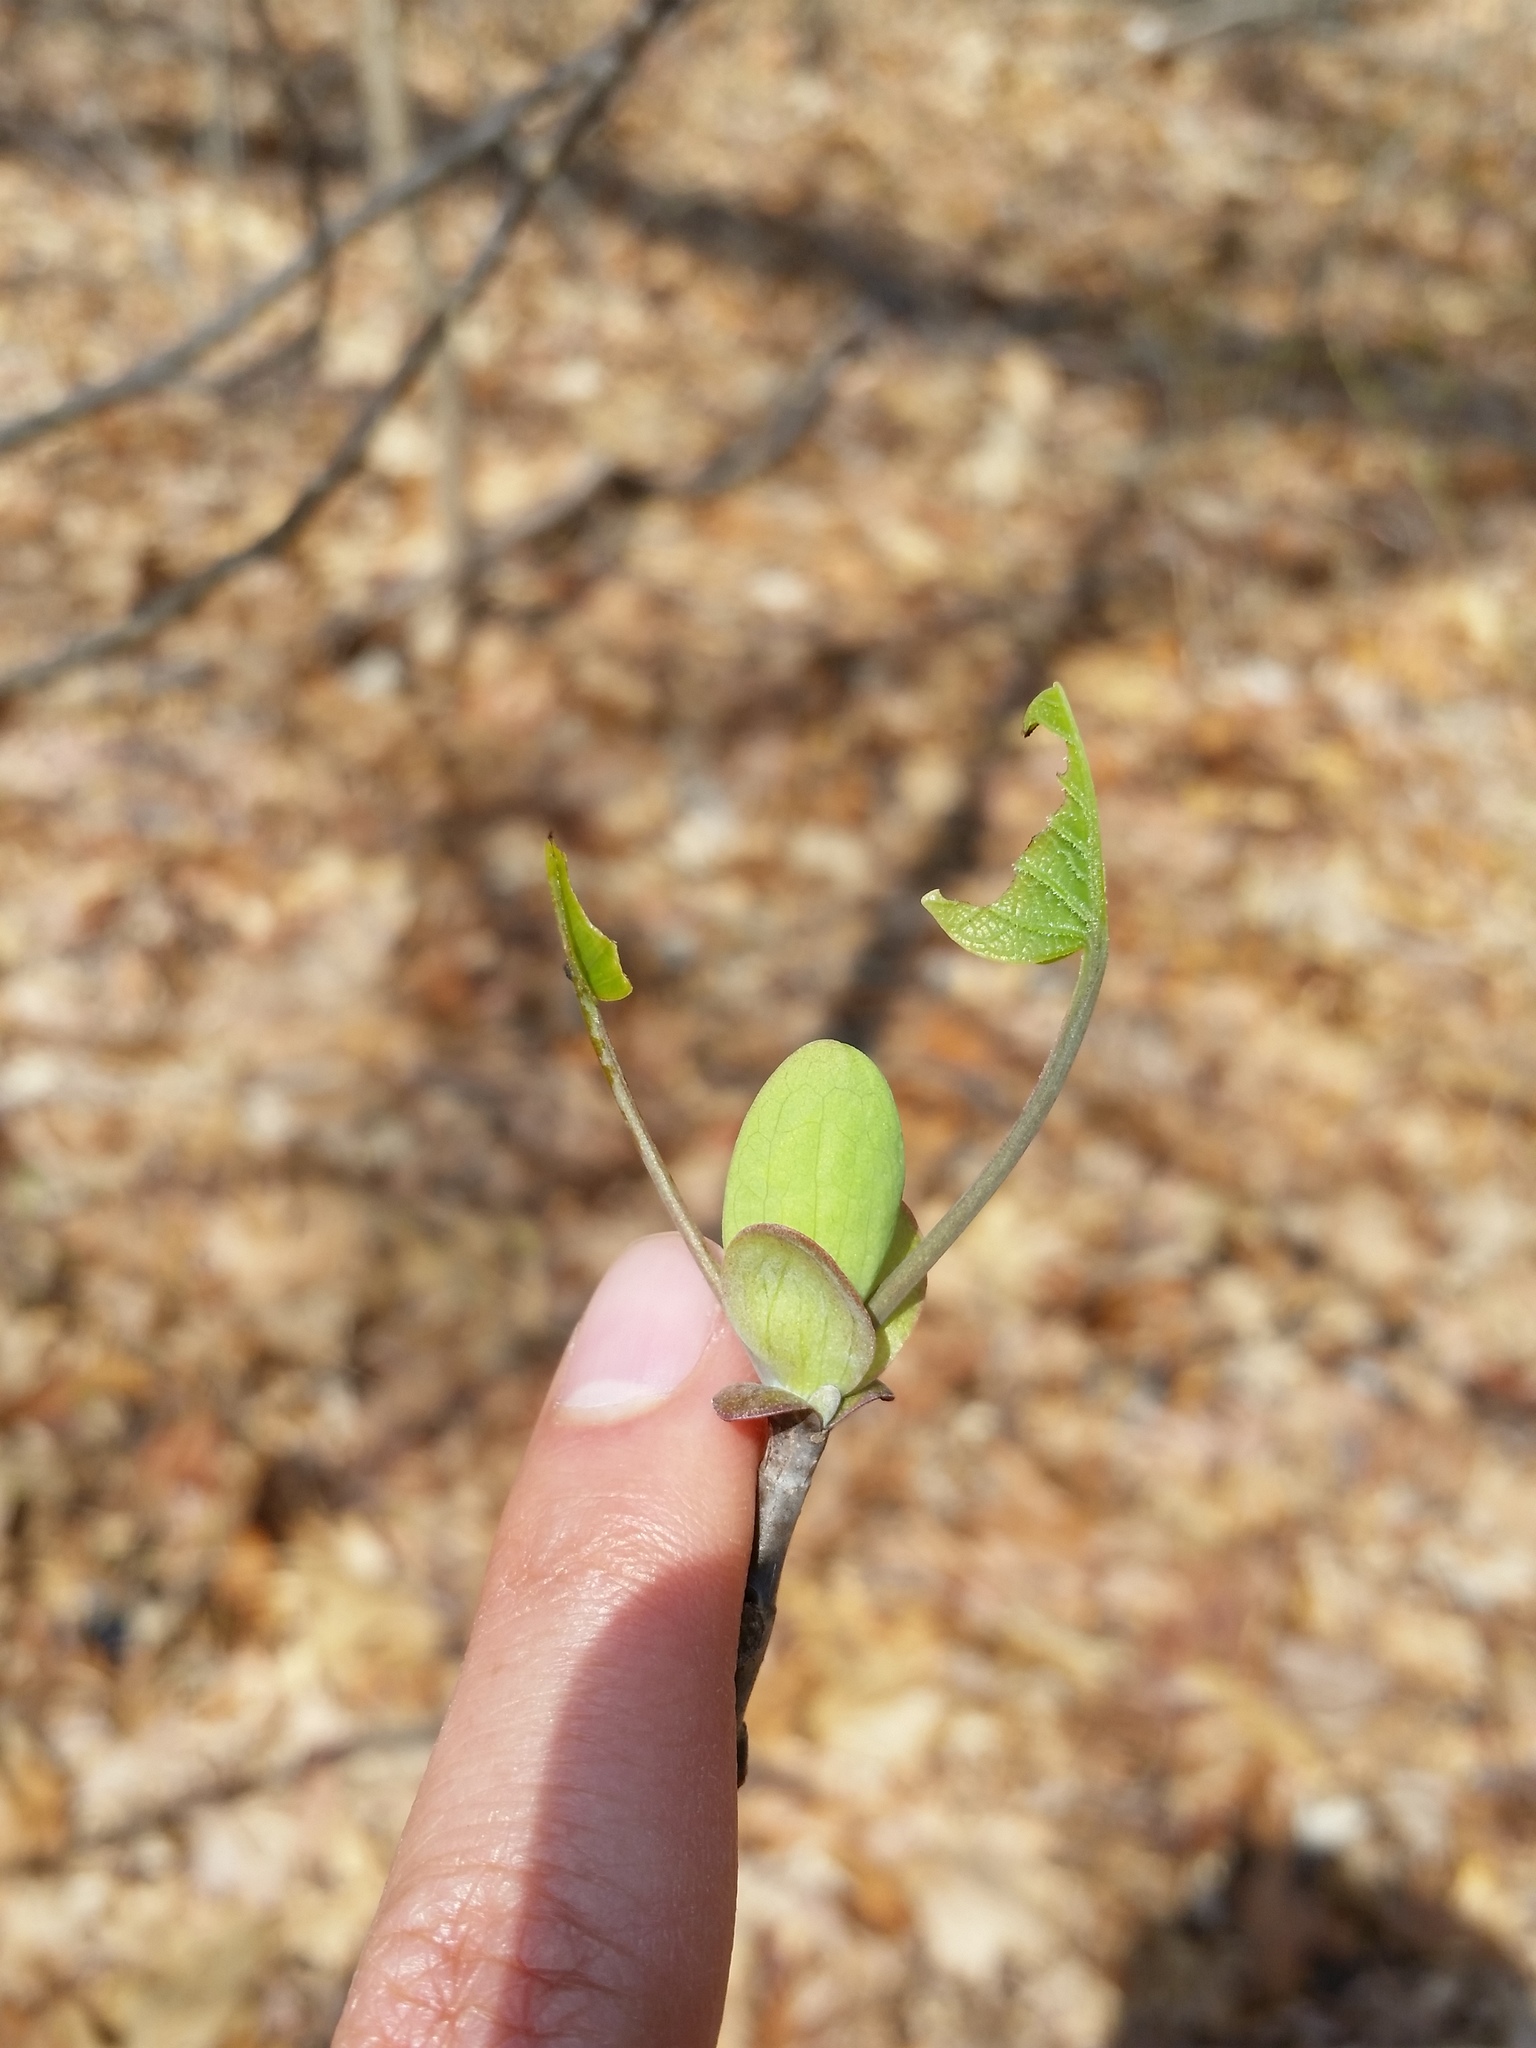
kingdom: Plantae
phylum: Tracheophyta
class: Magnoliopsida
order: Magnoliales
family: Magnoliaceae
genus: Liriodendron
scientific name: Liriodendron tulipifera
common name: Tulip tree
